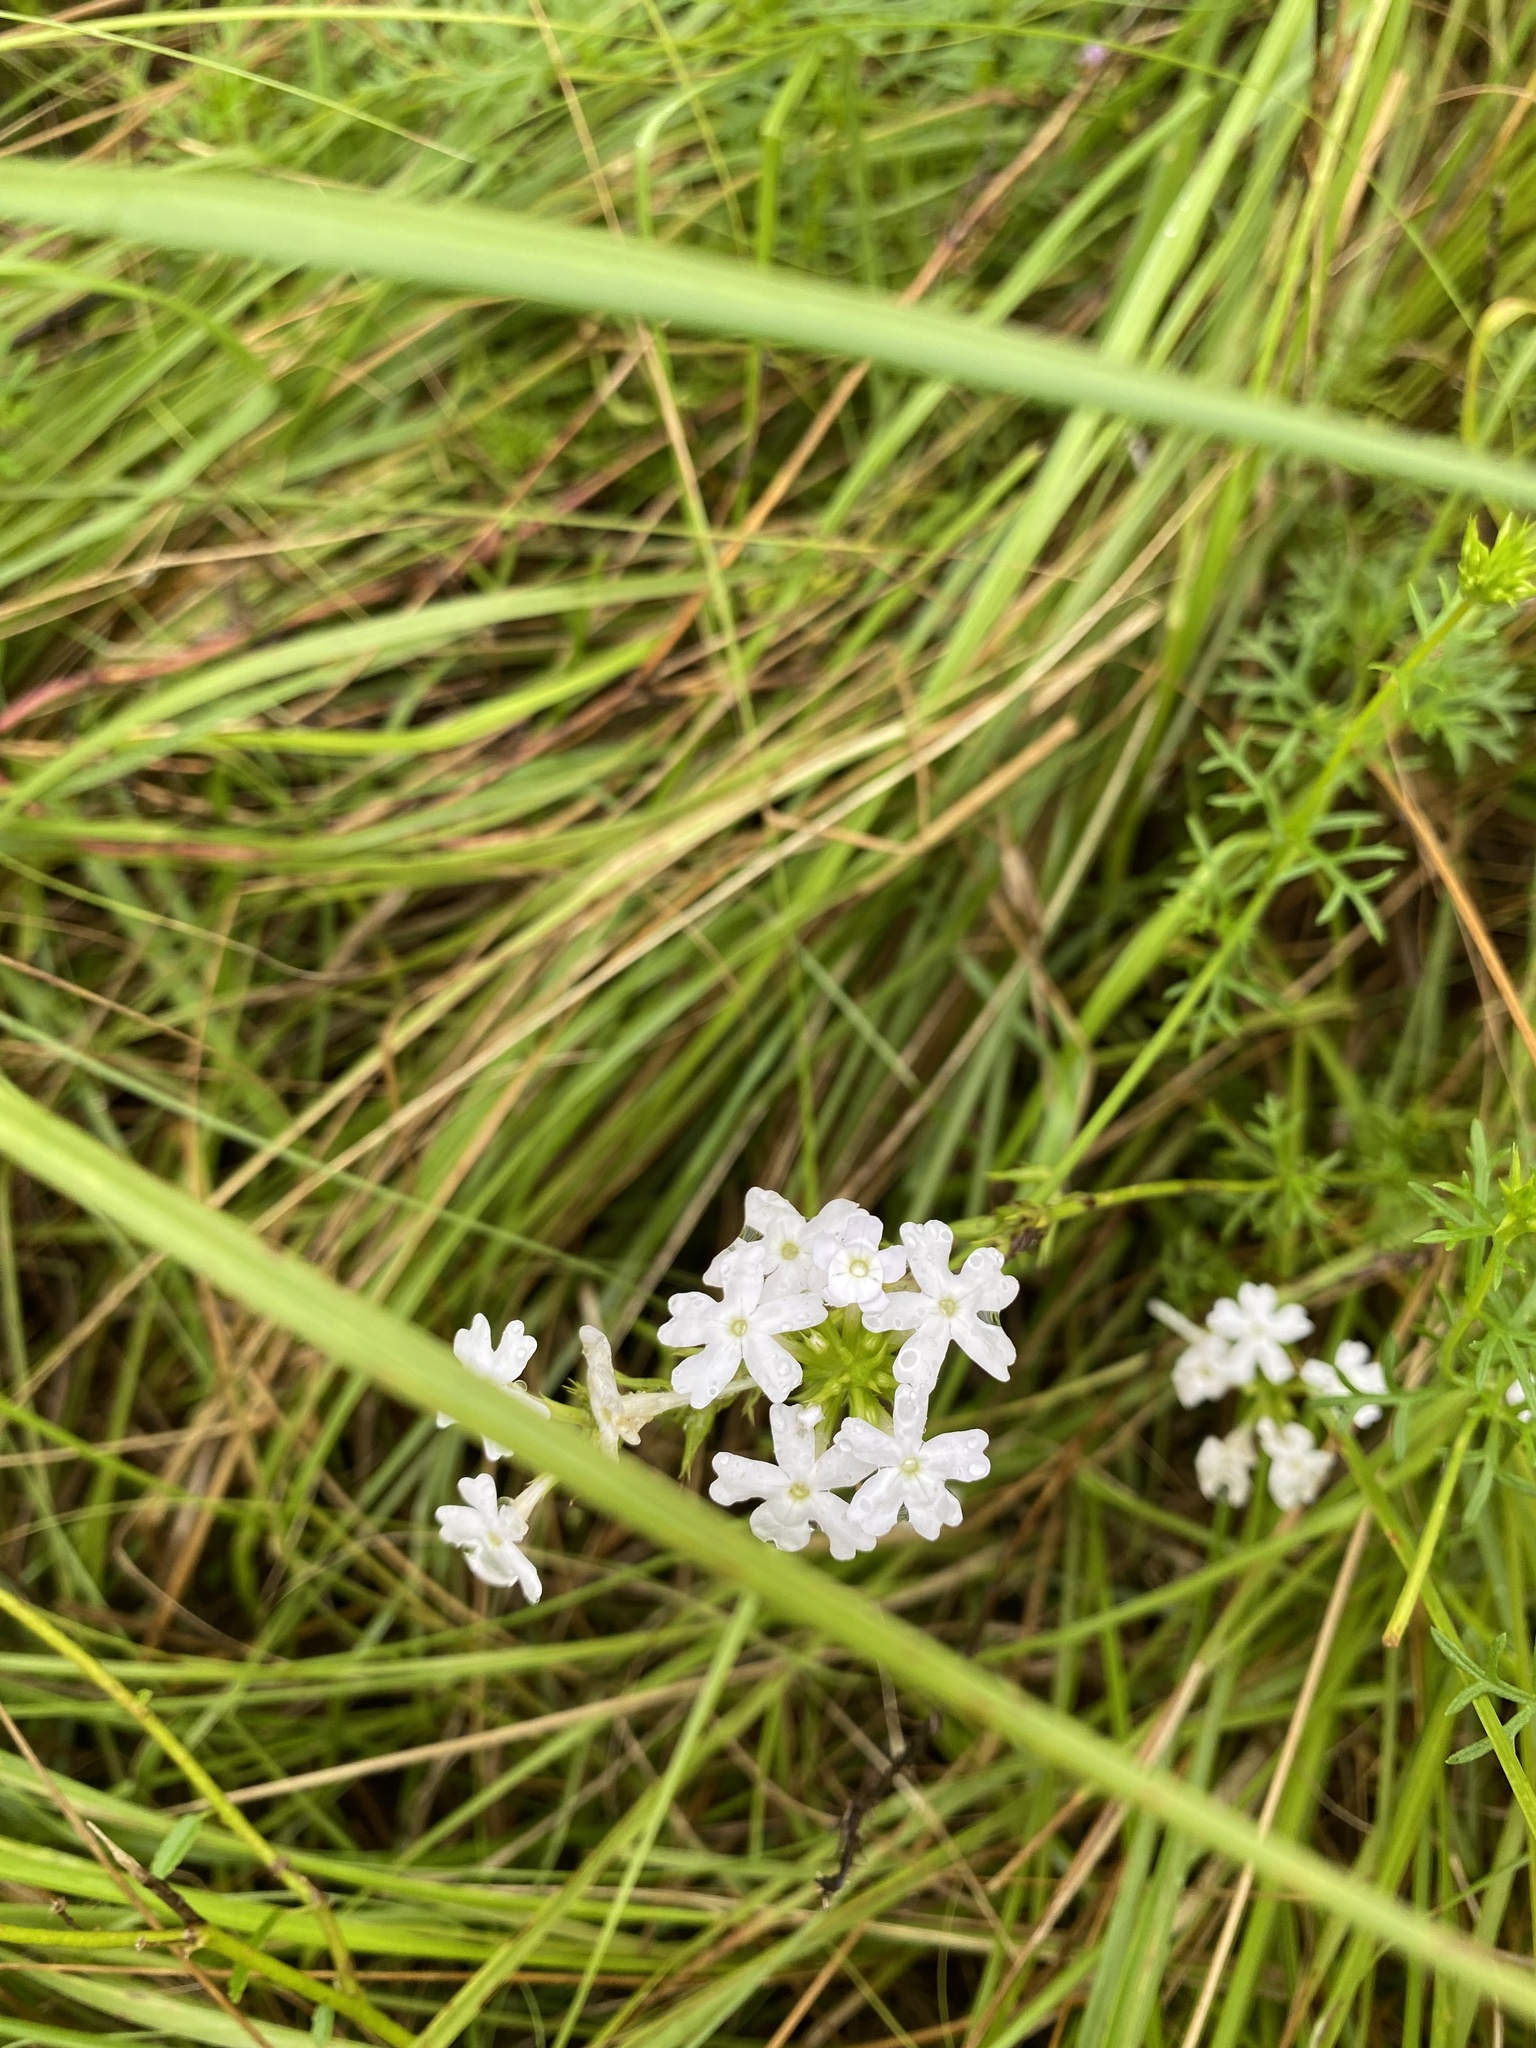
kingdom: Plantae
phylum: Tracheophyta
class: Magnoliopsida
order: Lamiales
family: Verbenaceae
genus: Verbena
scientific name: Verbena aristigera
